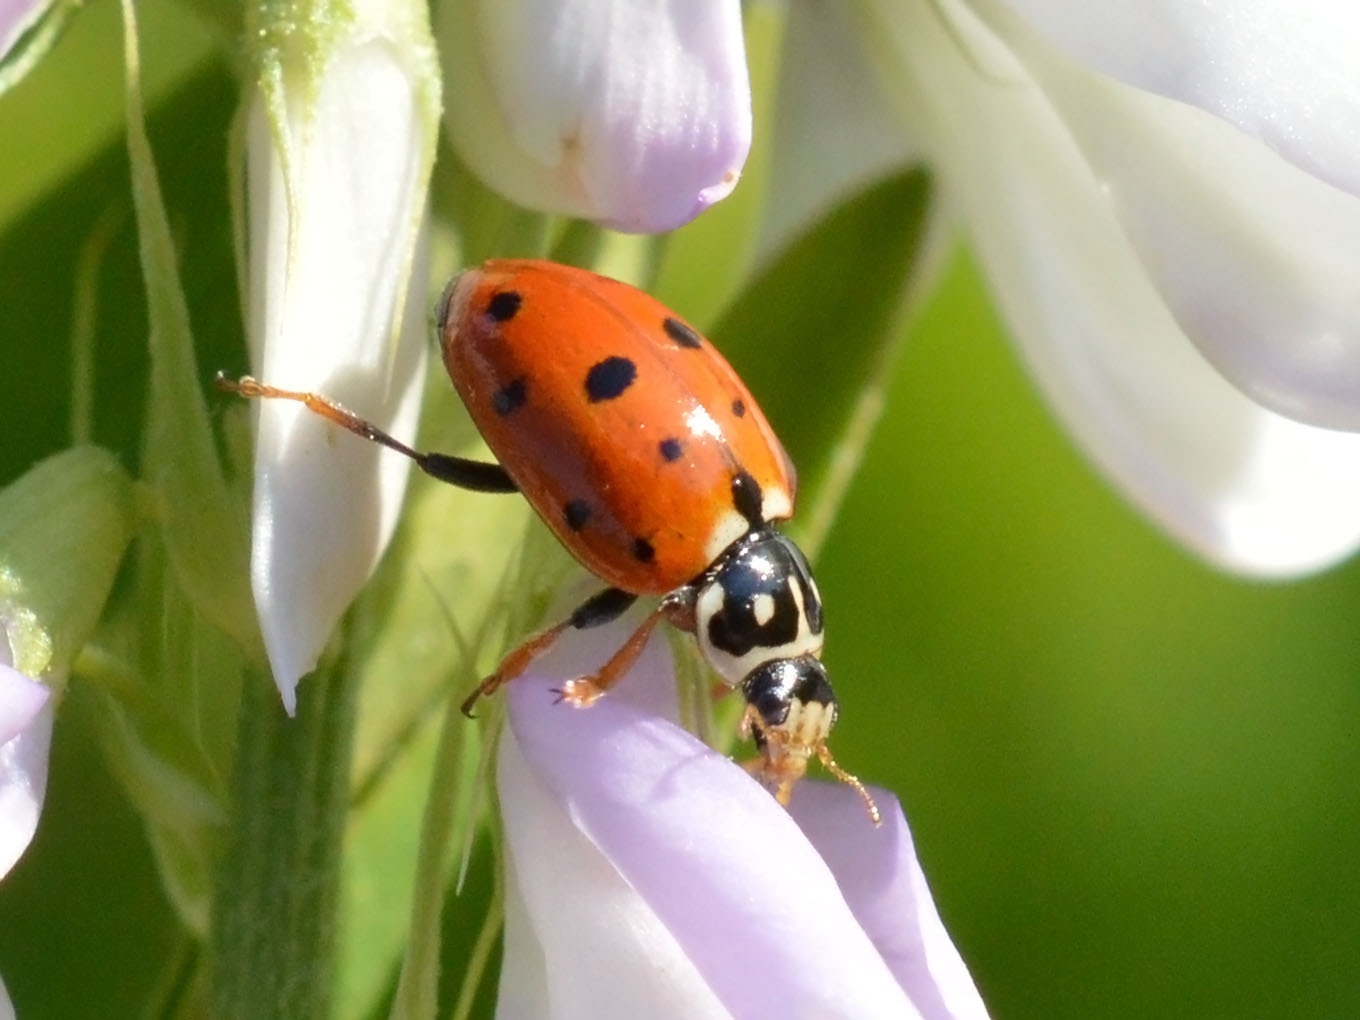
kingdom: Animalia
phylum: Arthropoda
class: Insecta
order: Coleoptera
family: Coccinellidae
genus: Hippodamia
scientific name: Hippodamia variegata
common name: Ladybird beetle
